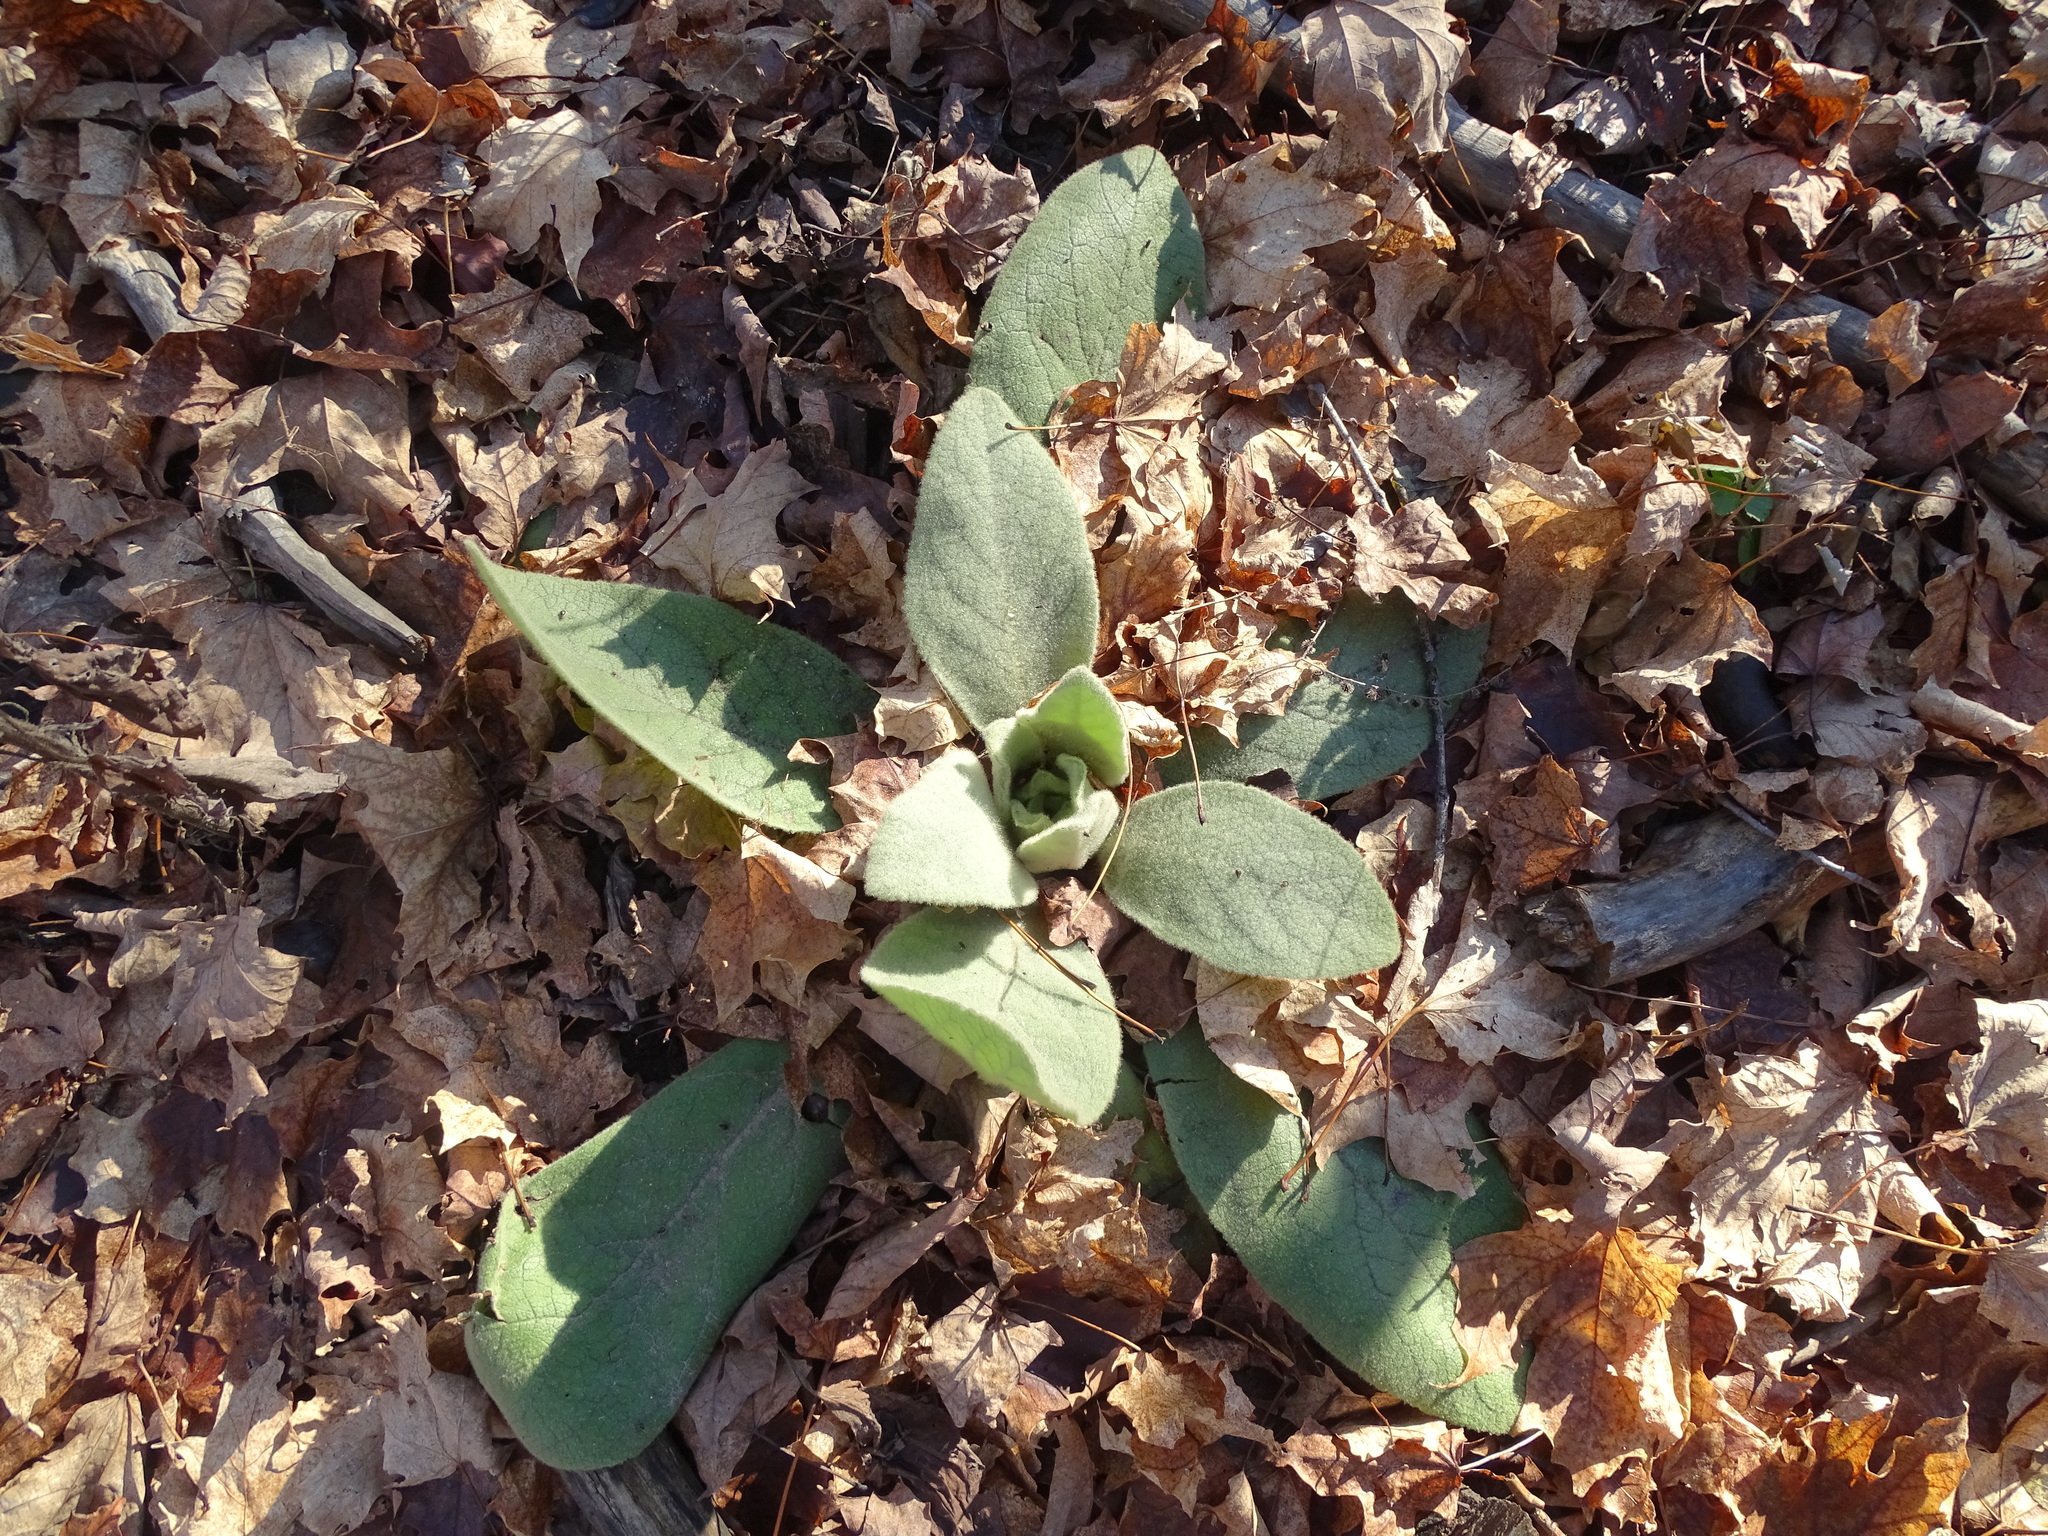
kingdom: Plantae
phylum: Tracheophyta
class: Magnoliopsida
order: Lamiales
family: Scrophulariaceae
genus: Verbascum
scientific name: Verbascum thapsus
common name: Common mullein
